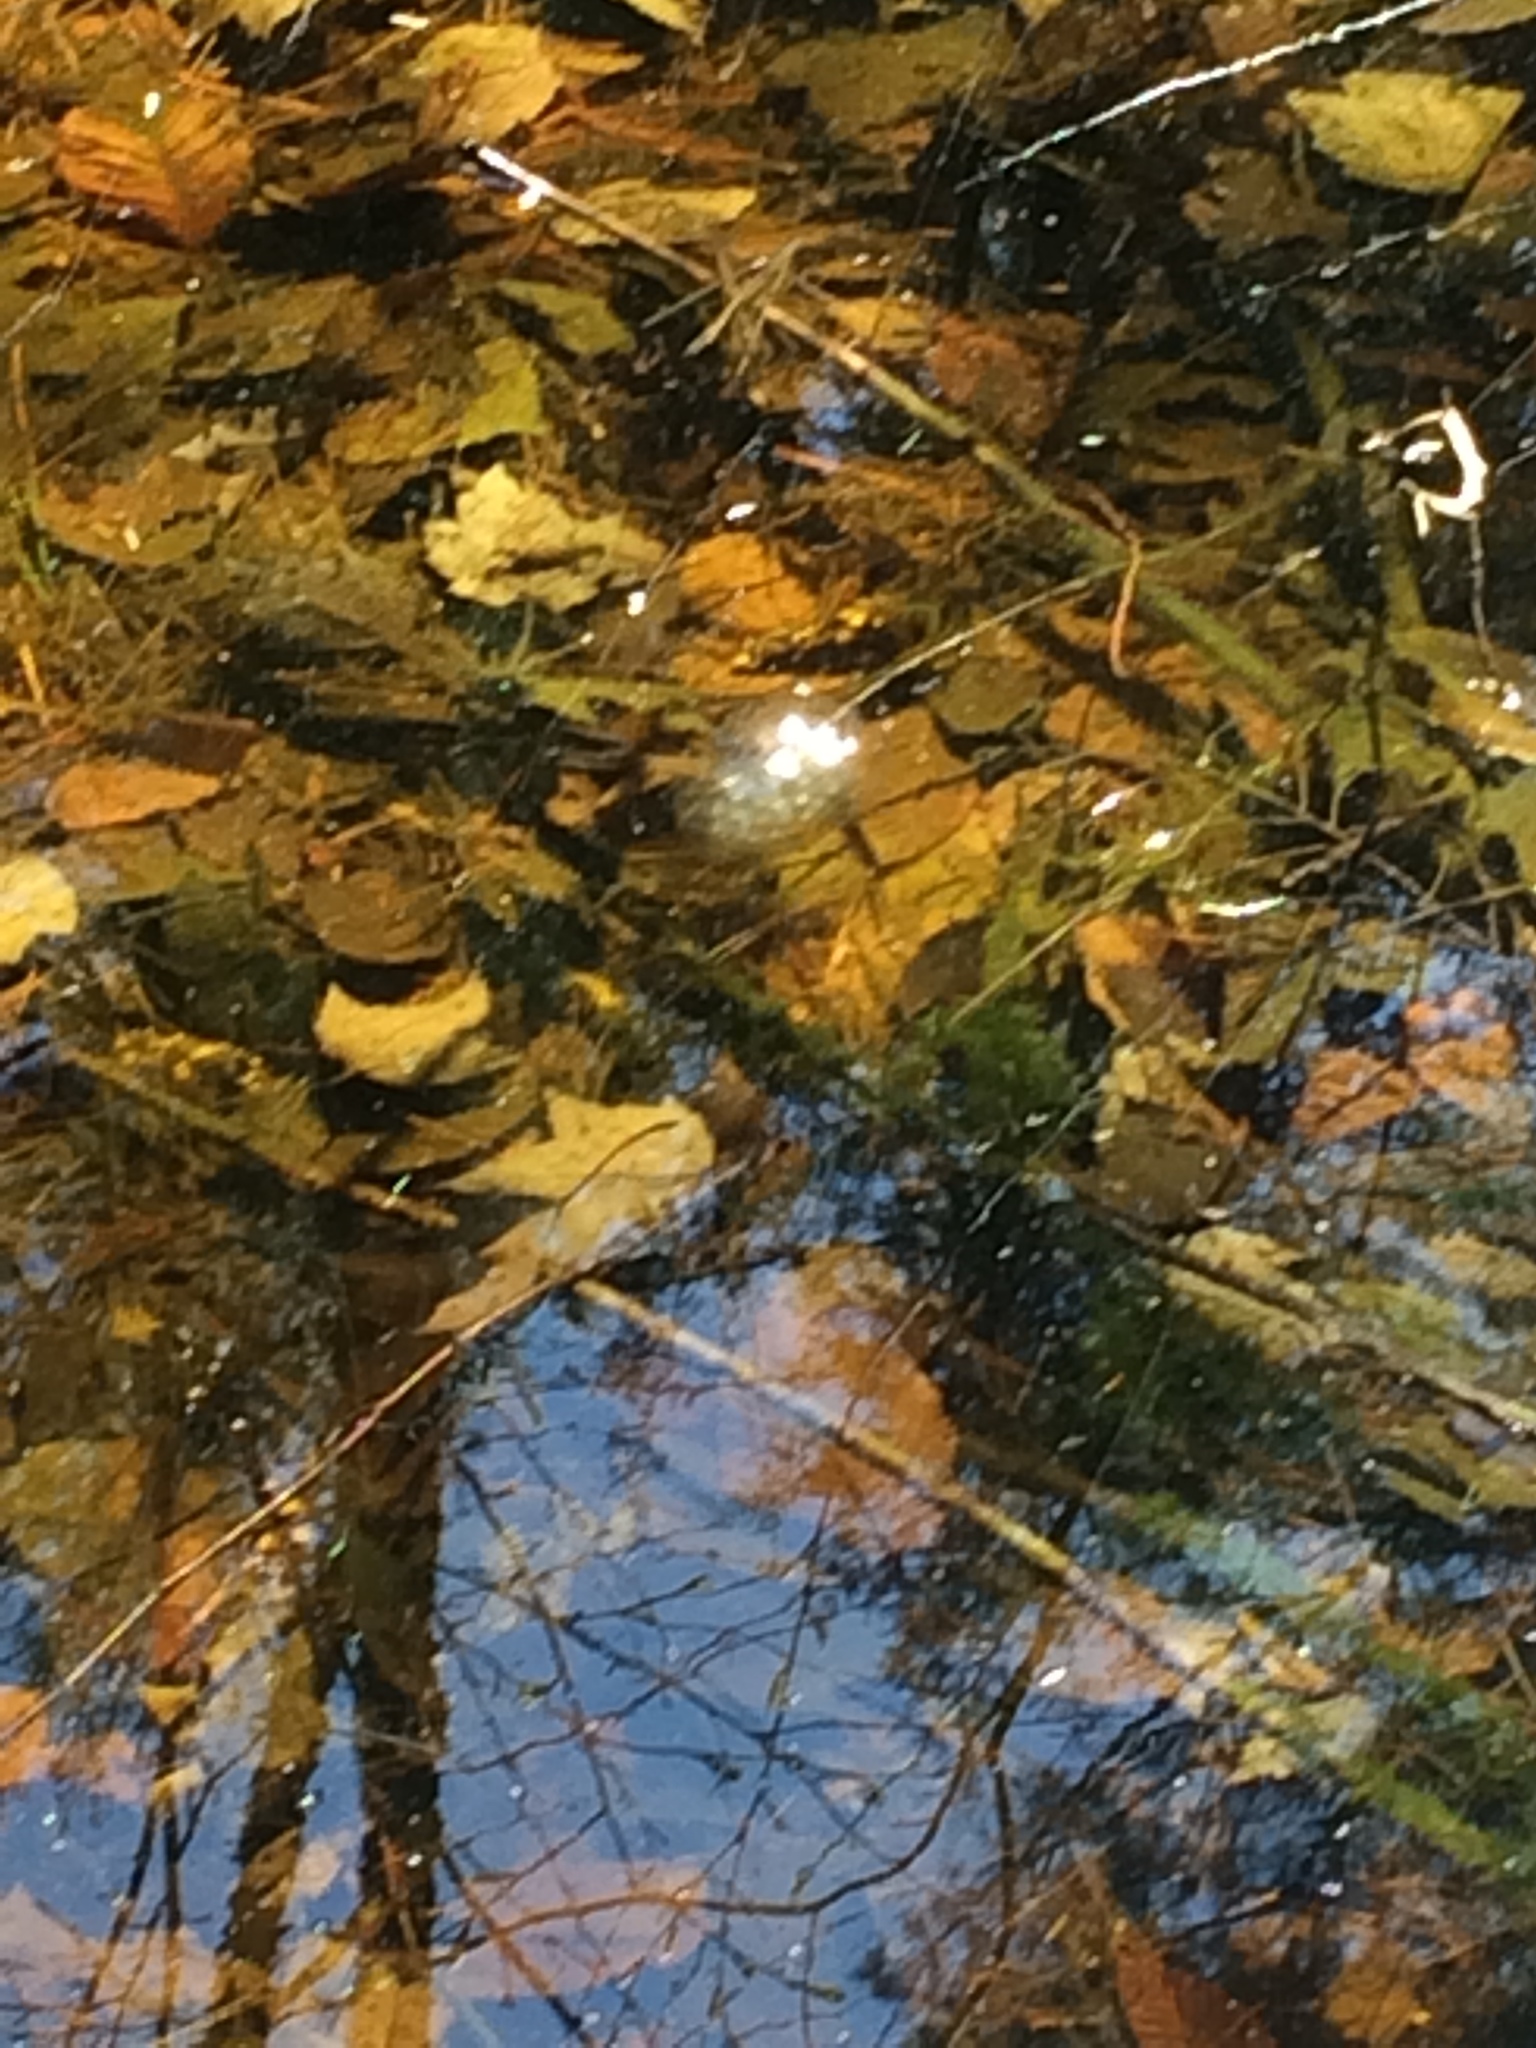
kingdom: Animalia
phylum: Chordata
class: Amphibia
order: Anura
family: Ranidae
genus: Lithobates
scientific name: Lithobates sylvaticus
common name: Wood frog
